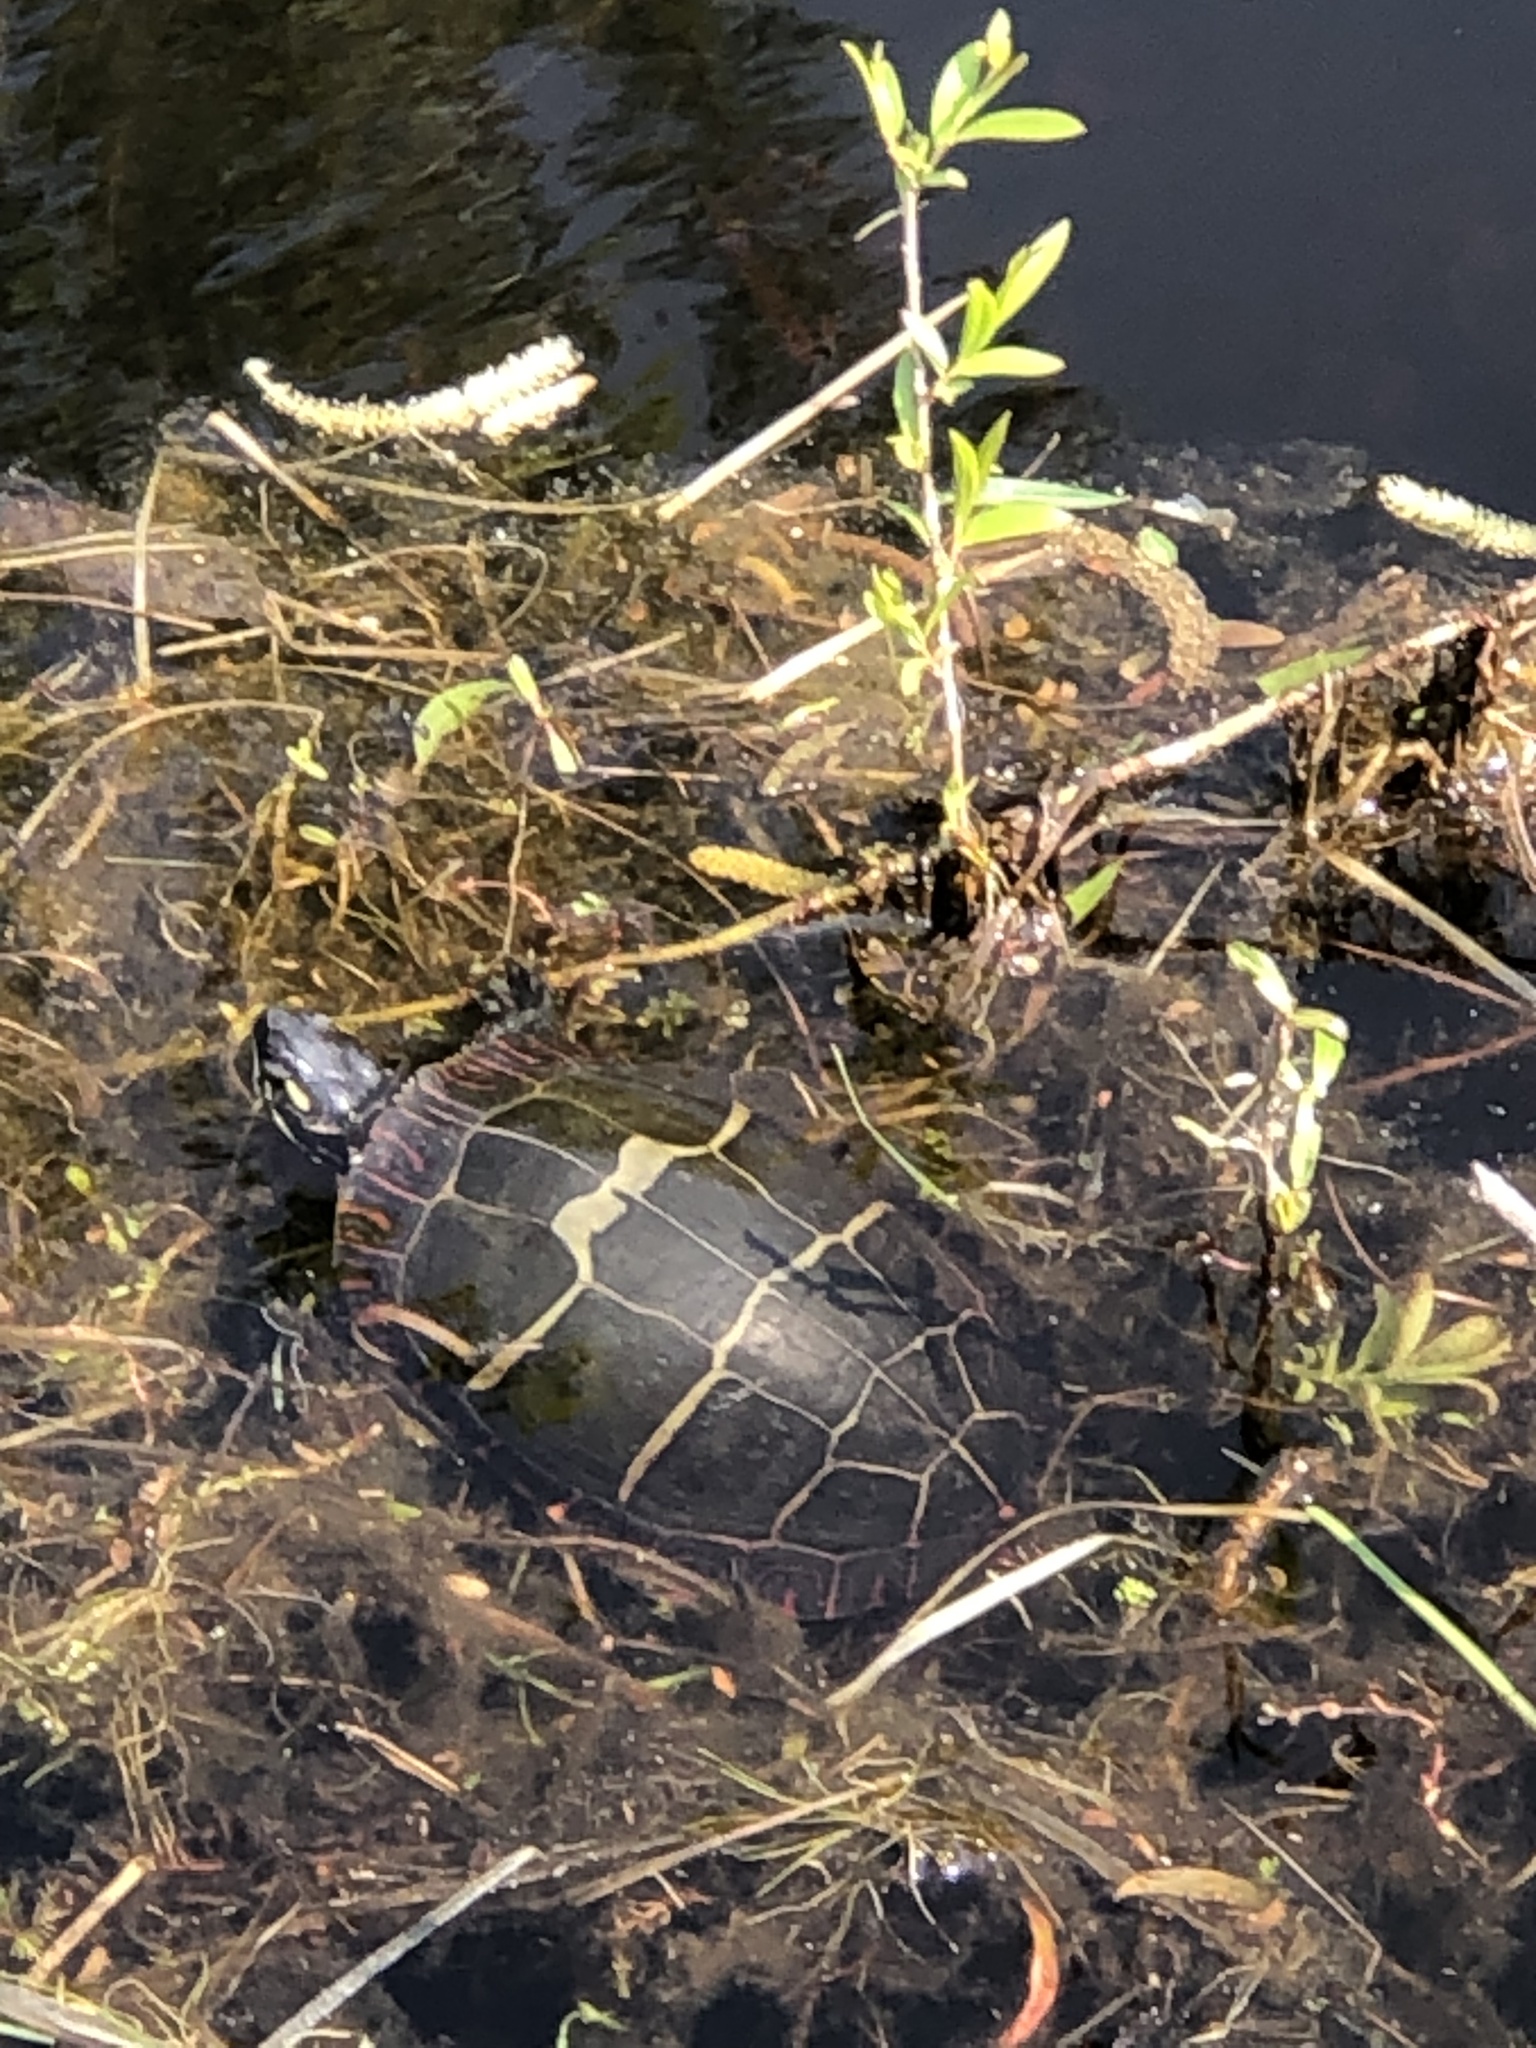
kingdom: Animalia
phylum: Chordata
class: Testudines
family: Emydidae
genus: Chrysemys
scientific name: Chrysemys picta
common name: Painted turtle
